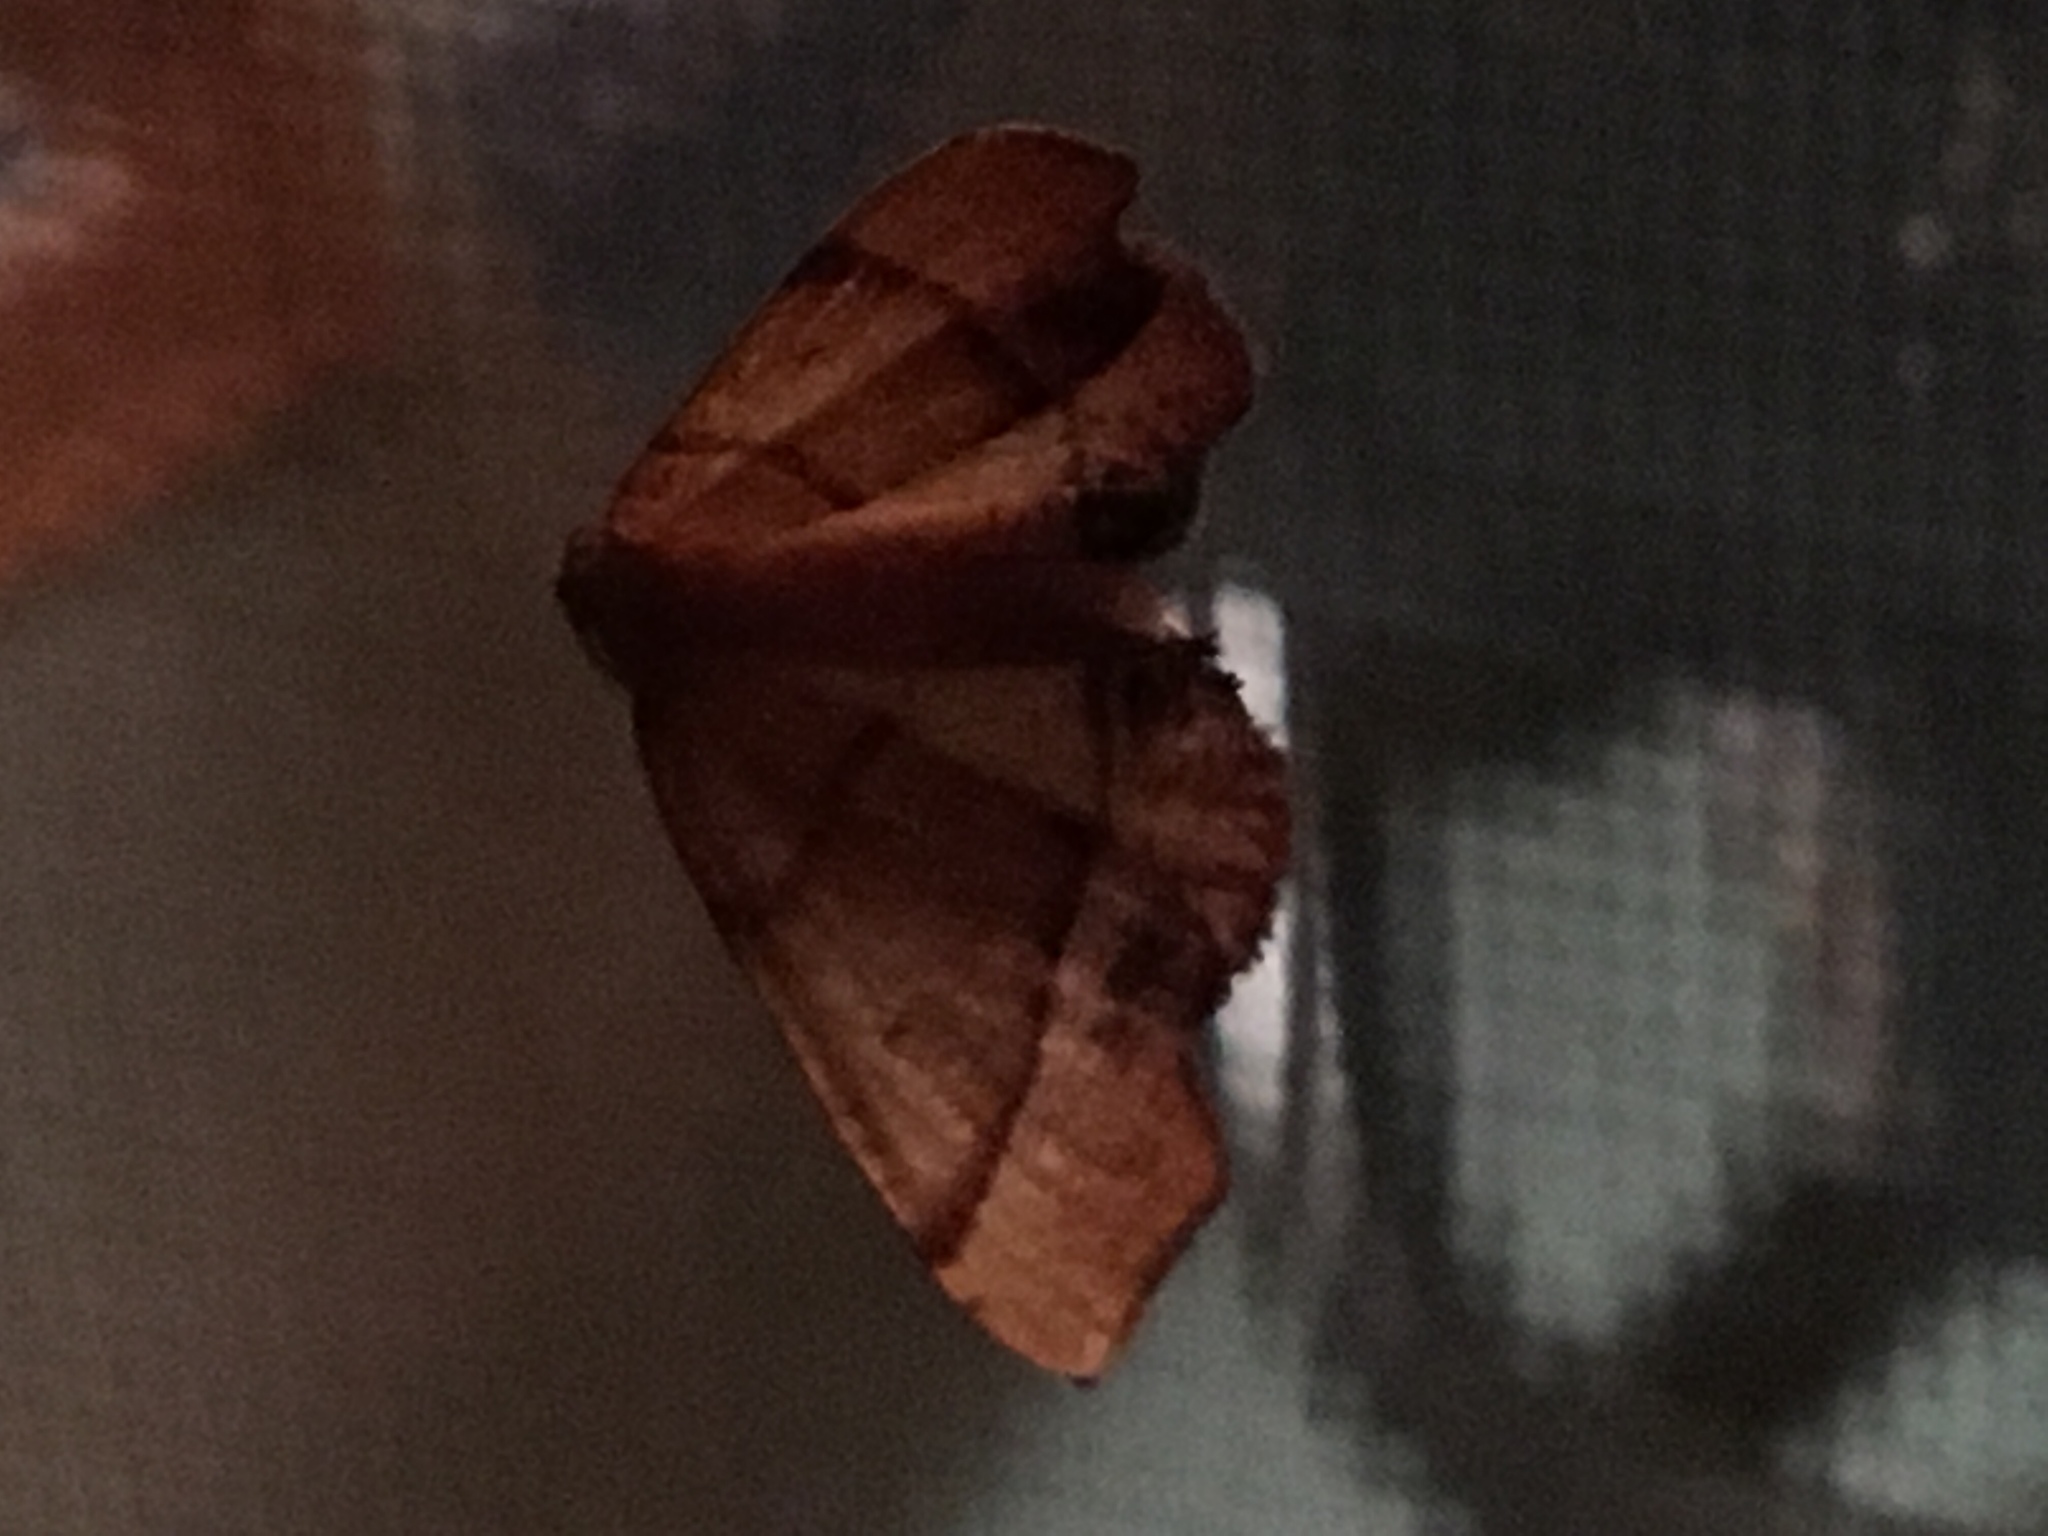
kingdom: Animalia
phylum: Arthropoda
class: Insecta
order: Lepidoptera
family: Geometridae
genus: Plagodis
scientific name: Plagodis phlogosaria
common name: Straight-lined plagodis
